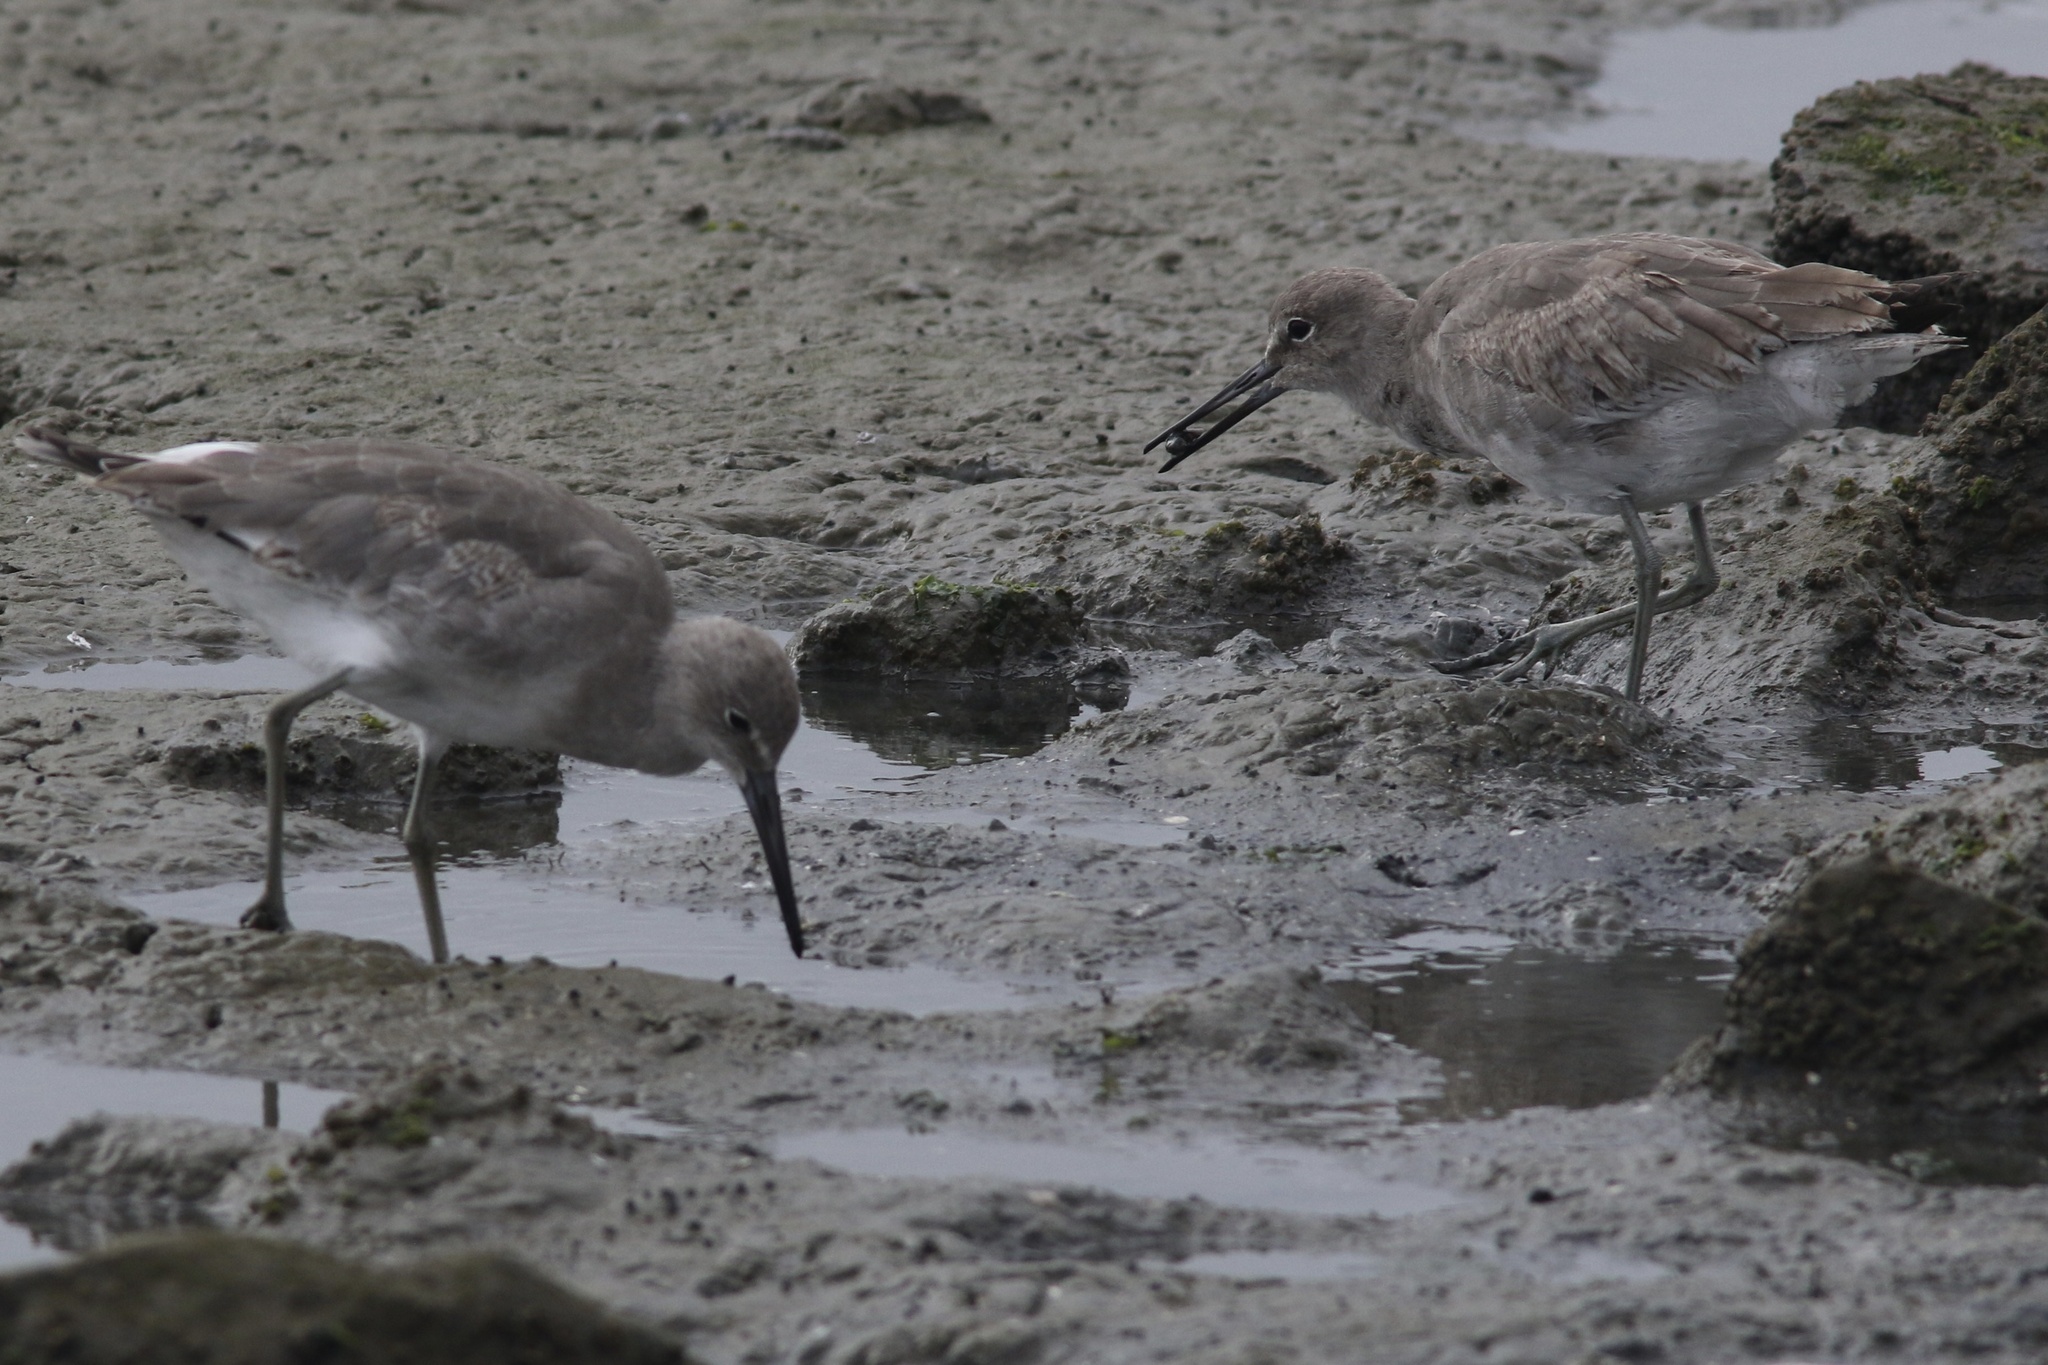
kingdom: Animalia
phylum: Chordata
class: Aves
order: Charadriiformes
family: Scolopacidae
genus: Tringa
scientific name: Tringa semipalmata
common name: Willet
